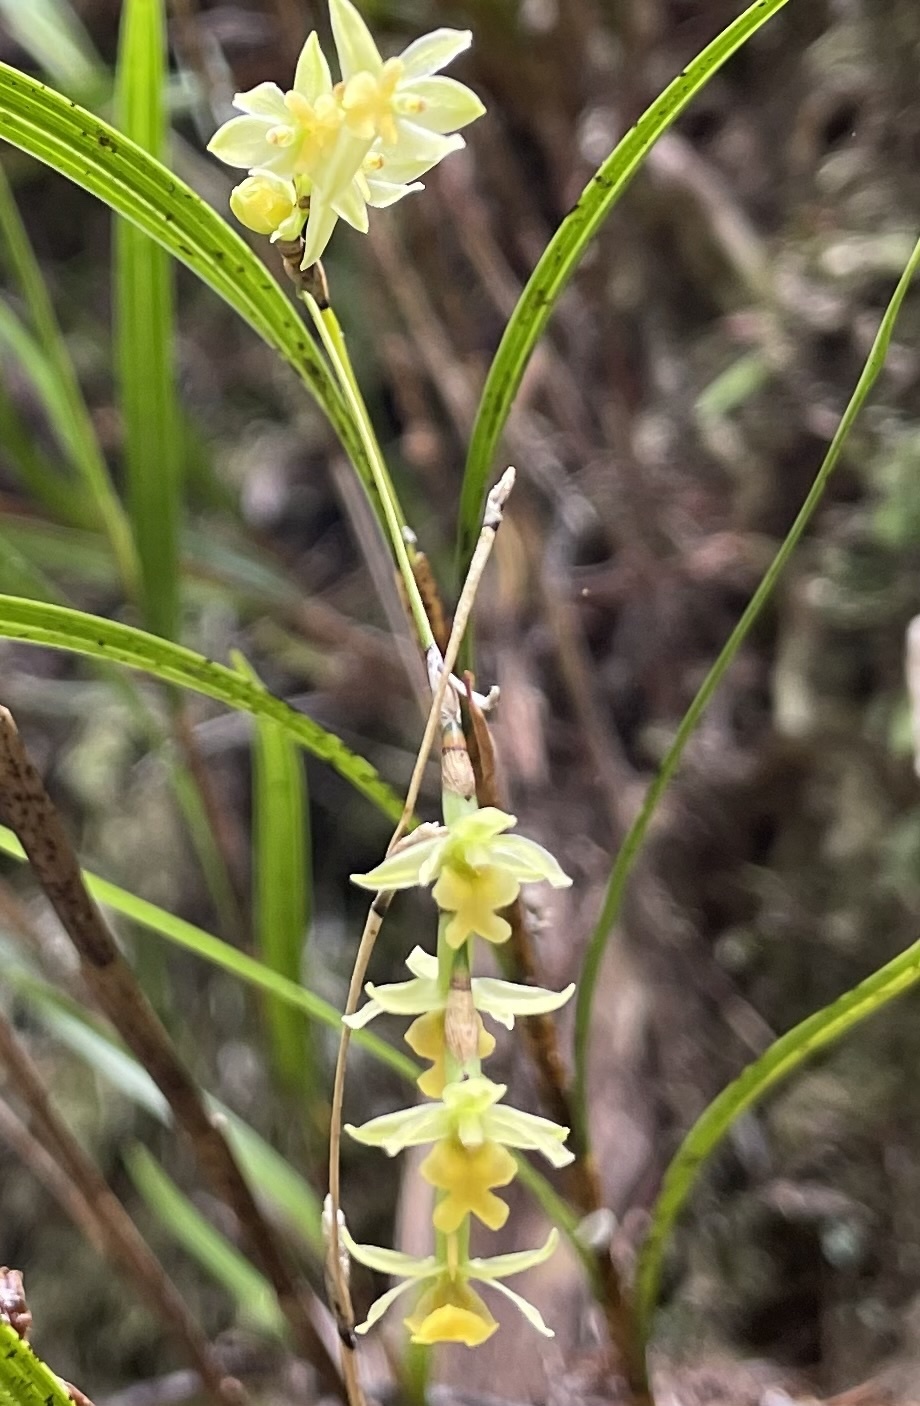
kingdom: Plantae
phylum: Tracheophyta
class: Liliopsida
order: Asparagales
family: Orchidaceae
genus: Earina
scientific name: Earina mucronata
